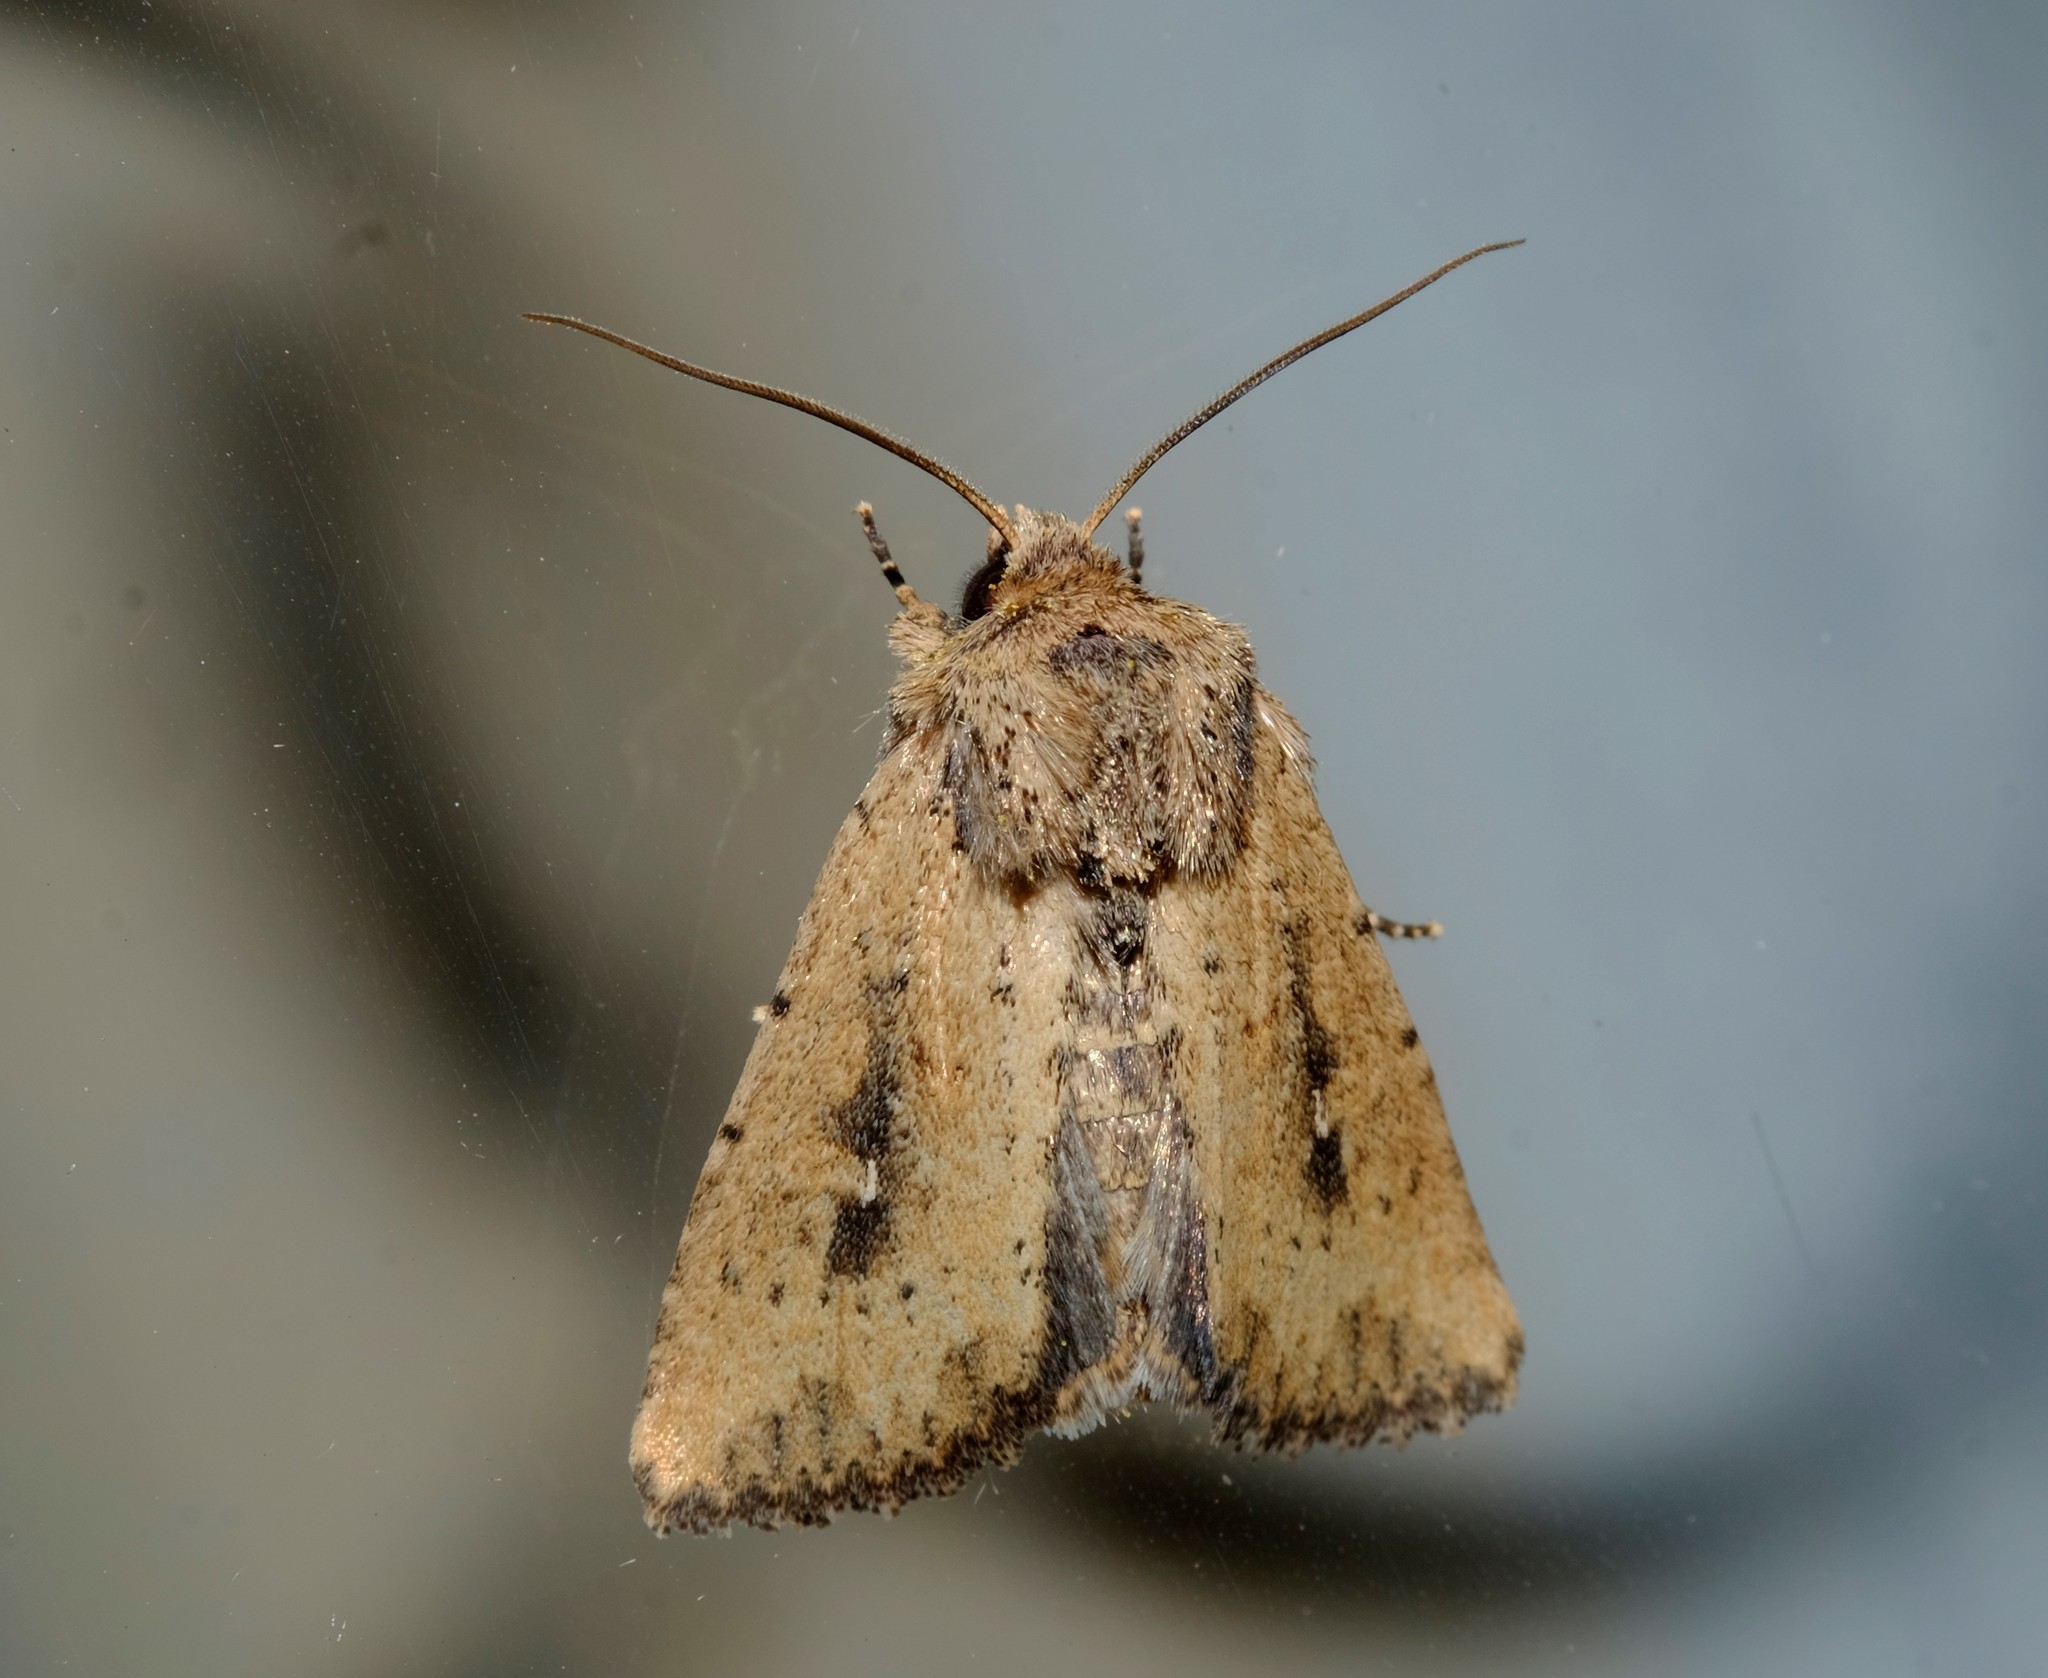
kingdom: Animalia
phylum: Arthropoda
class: Insecta
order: Lepidoptera
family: Noctuidae
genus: Leucania
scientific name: Leucania obumbrata
